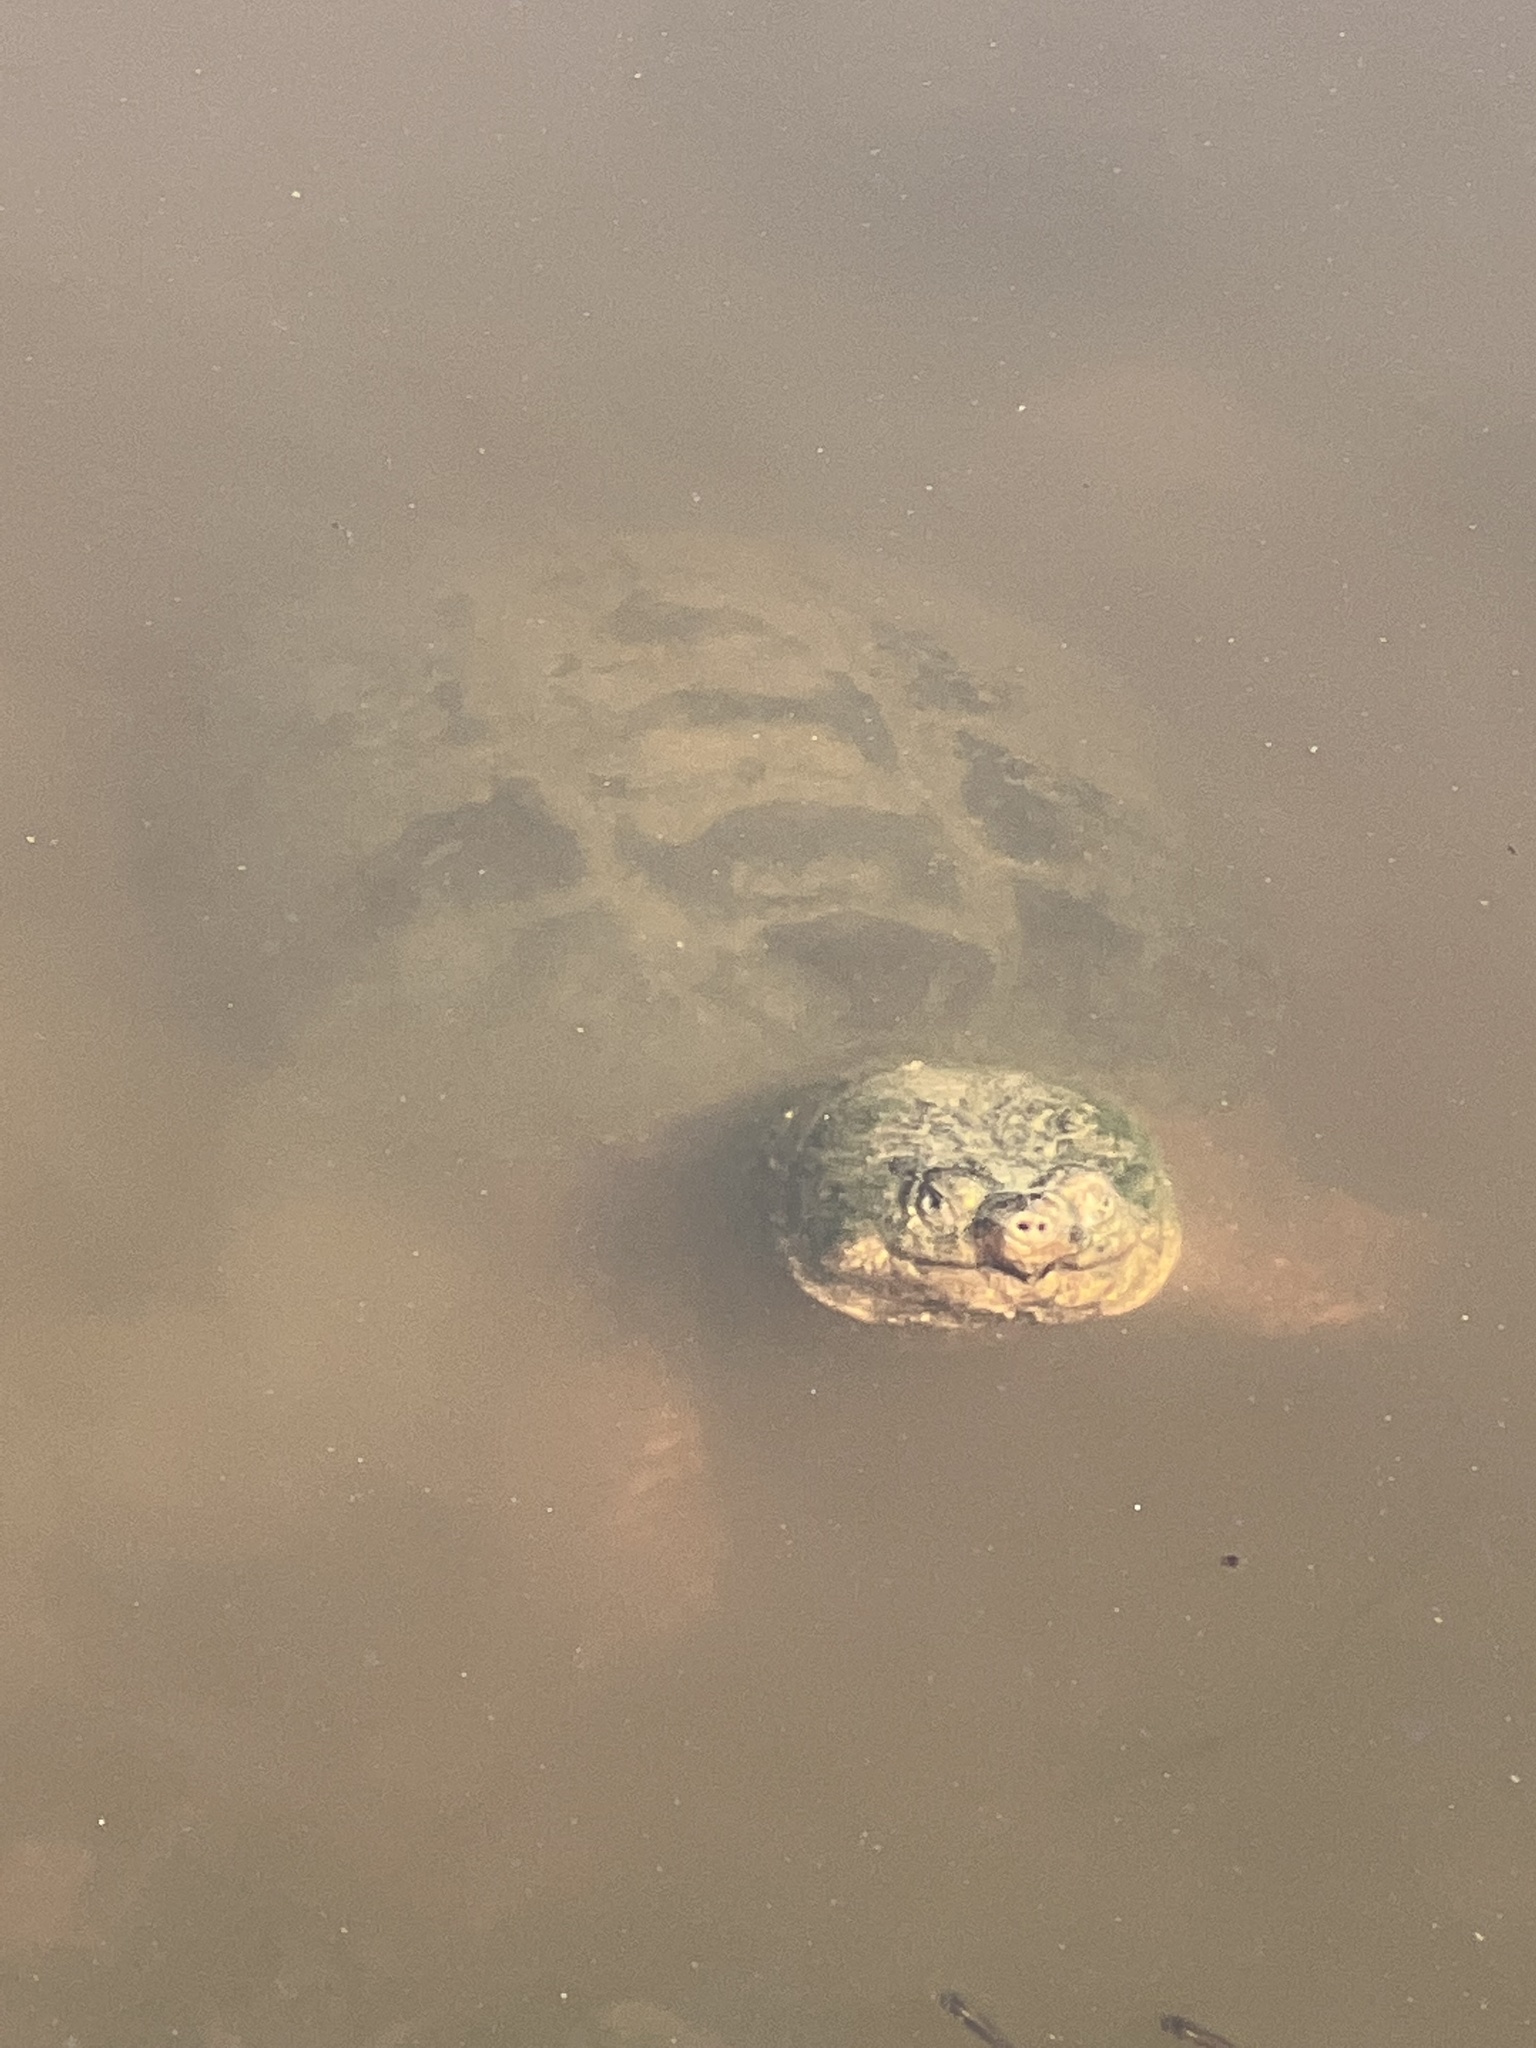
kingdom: Animalia
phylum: Chordata
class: Testudines
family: Chelydridae
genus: Chelydra
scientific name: Chelydra serpentina
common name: Common snapping turtle
